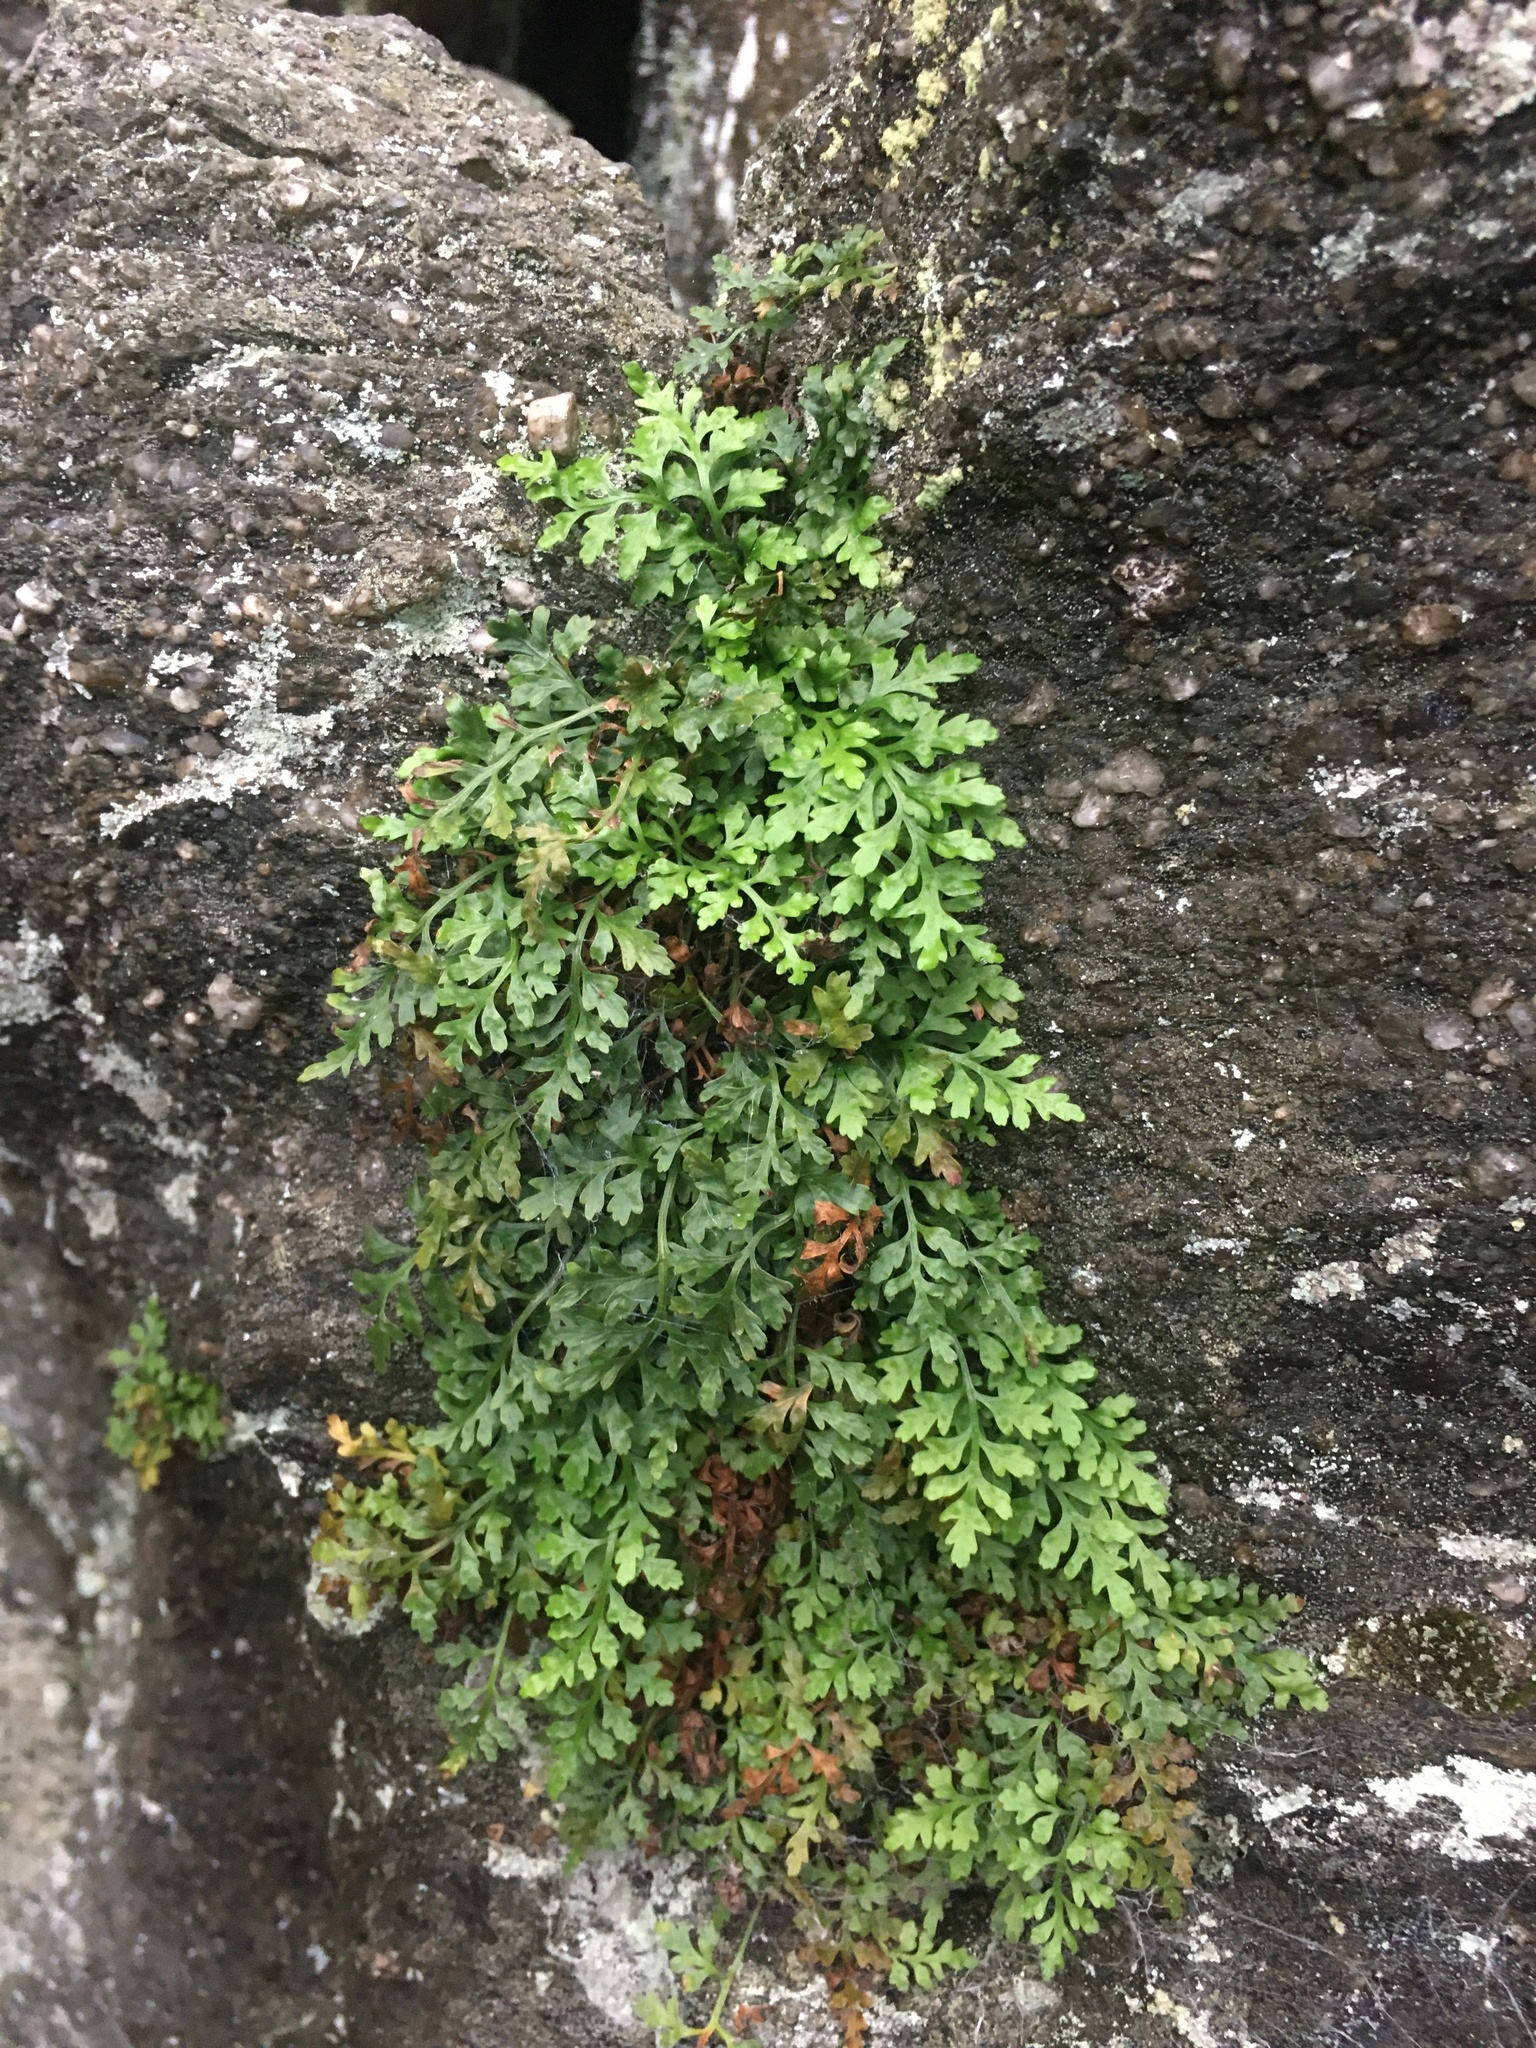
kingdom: Plantae
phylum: Tracheophyta
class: Polypodiopsida
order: Polypodiales
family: Aspleniaceae
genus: Asplenium
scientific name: Asplenium montanum
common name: Mountain spleenwort
